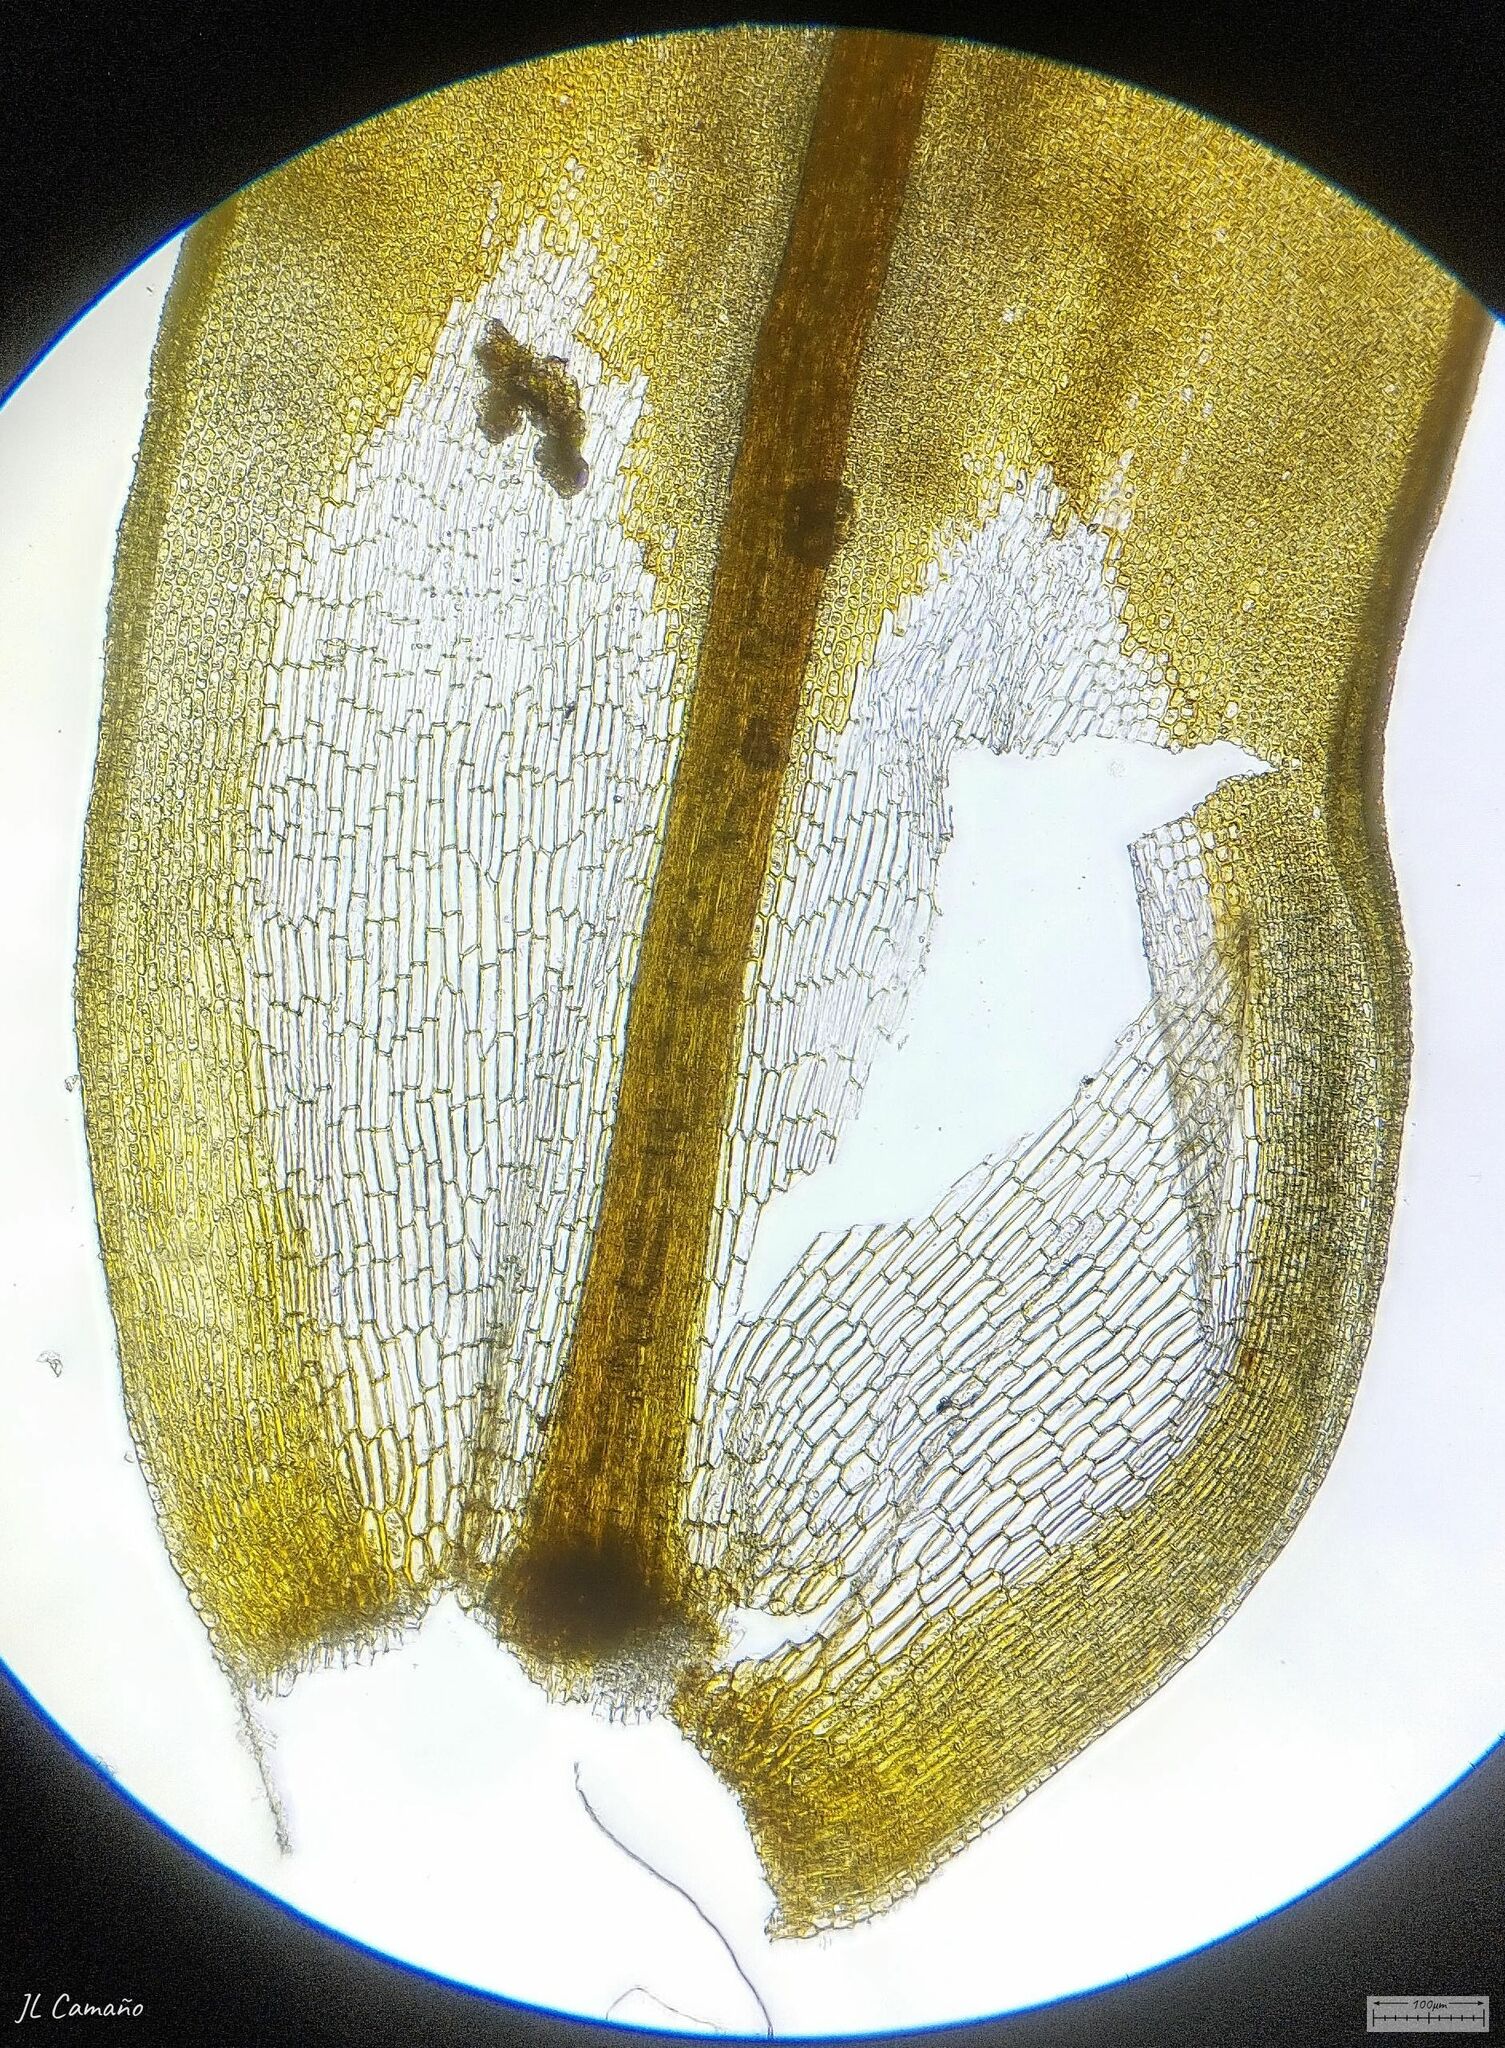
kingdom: Plantae
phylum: Bryophyta
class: Bryopsida
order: Pottiales
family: Pottiaceae
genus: Syntrichia
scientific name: Syntrichia ruralis
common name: Sidewalk screw moss
